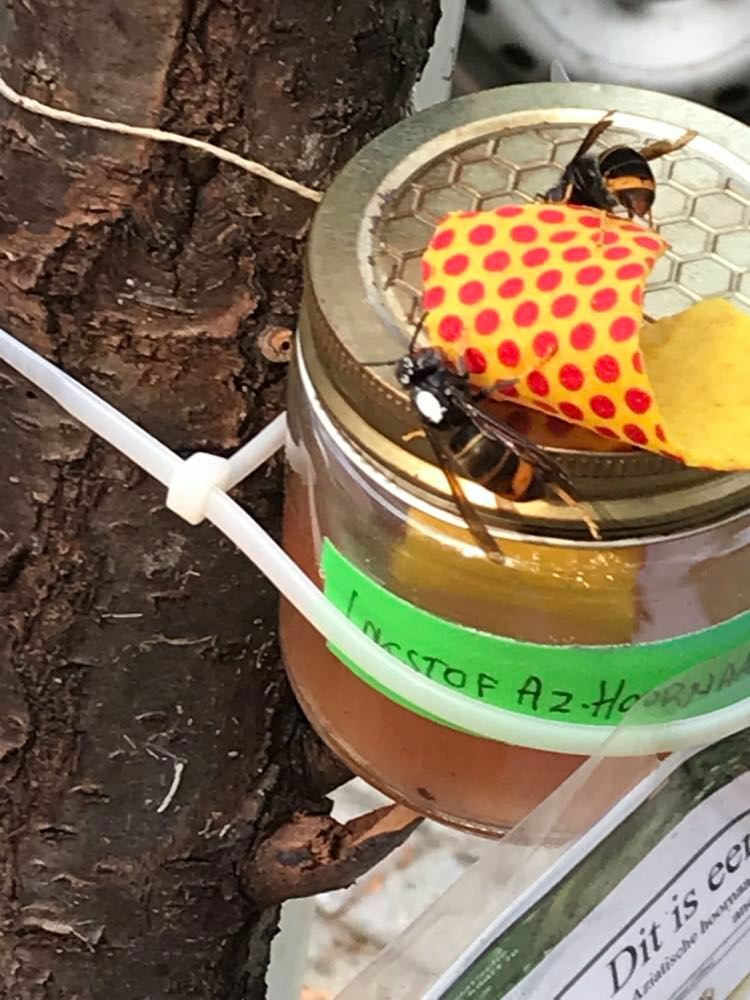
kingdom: Animalia
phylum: Arthropoda
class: Insecta
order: Hymenoptera
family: Vespidae
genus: Vespa
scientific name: Vespa velutina
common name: Asian hornet
